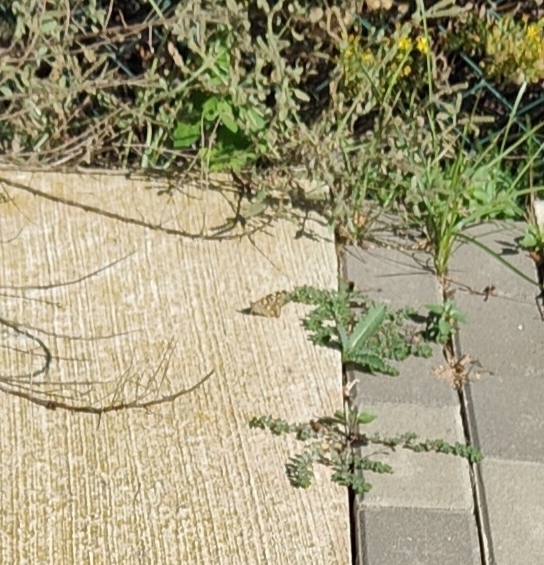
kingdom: Animalia
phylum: Arthropoda
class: Insecta
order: Lepidoptera
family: Nymphalidae
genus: Vanessa
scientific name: Vanessa cardui
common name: Painted lady
